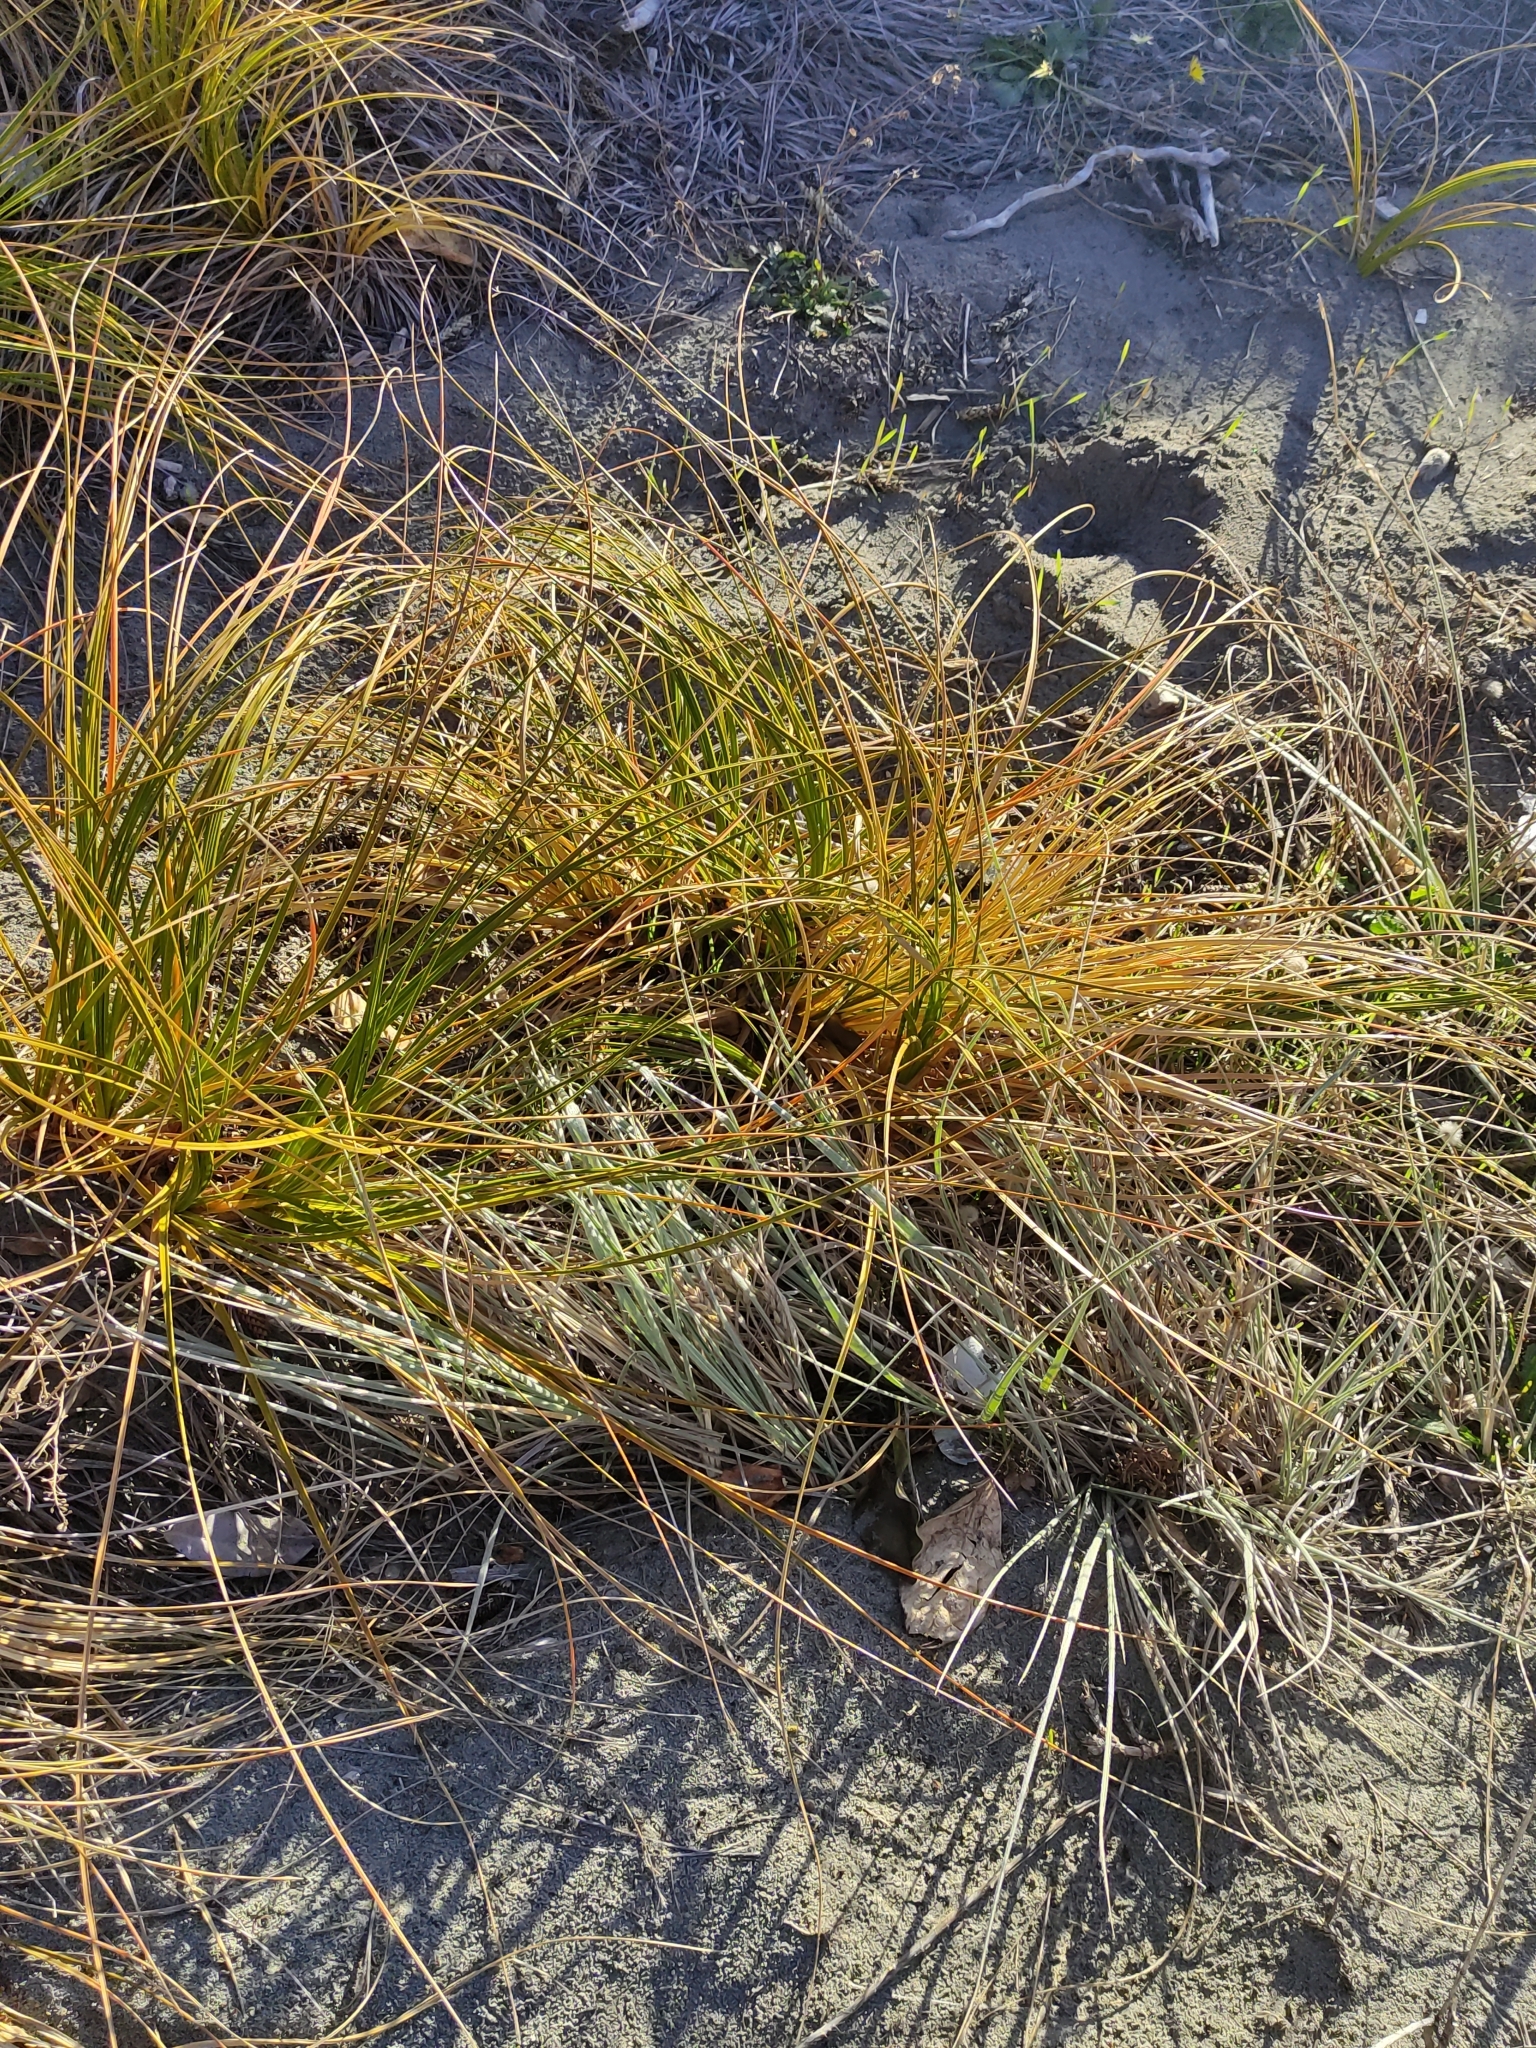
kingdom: Plantae
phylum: Tracheophyta
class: Liliopsida
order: Poales
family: Cyperaceae
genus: Ficinia
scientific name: Ficinia spiralis
